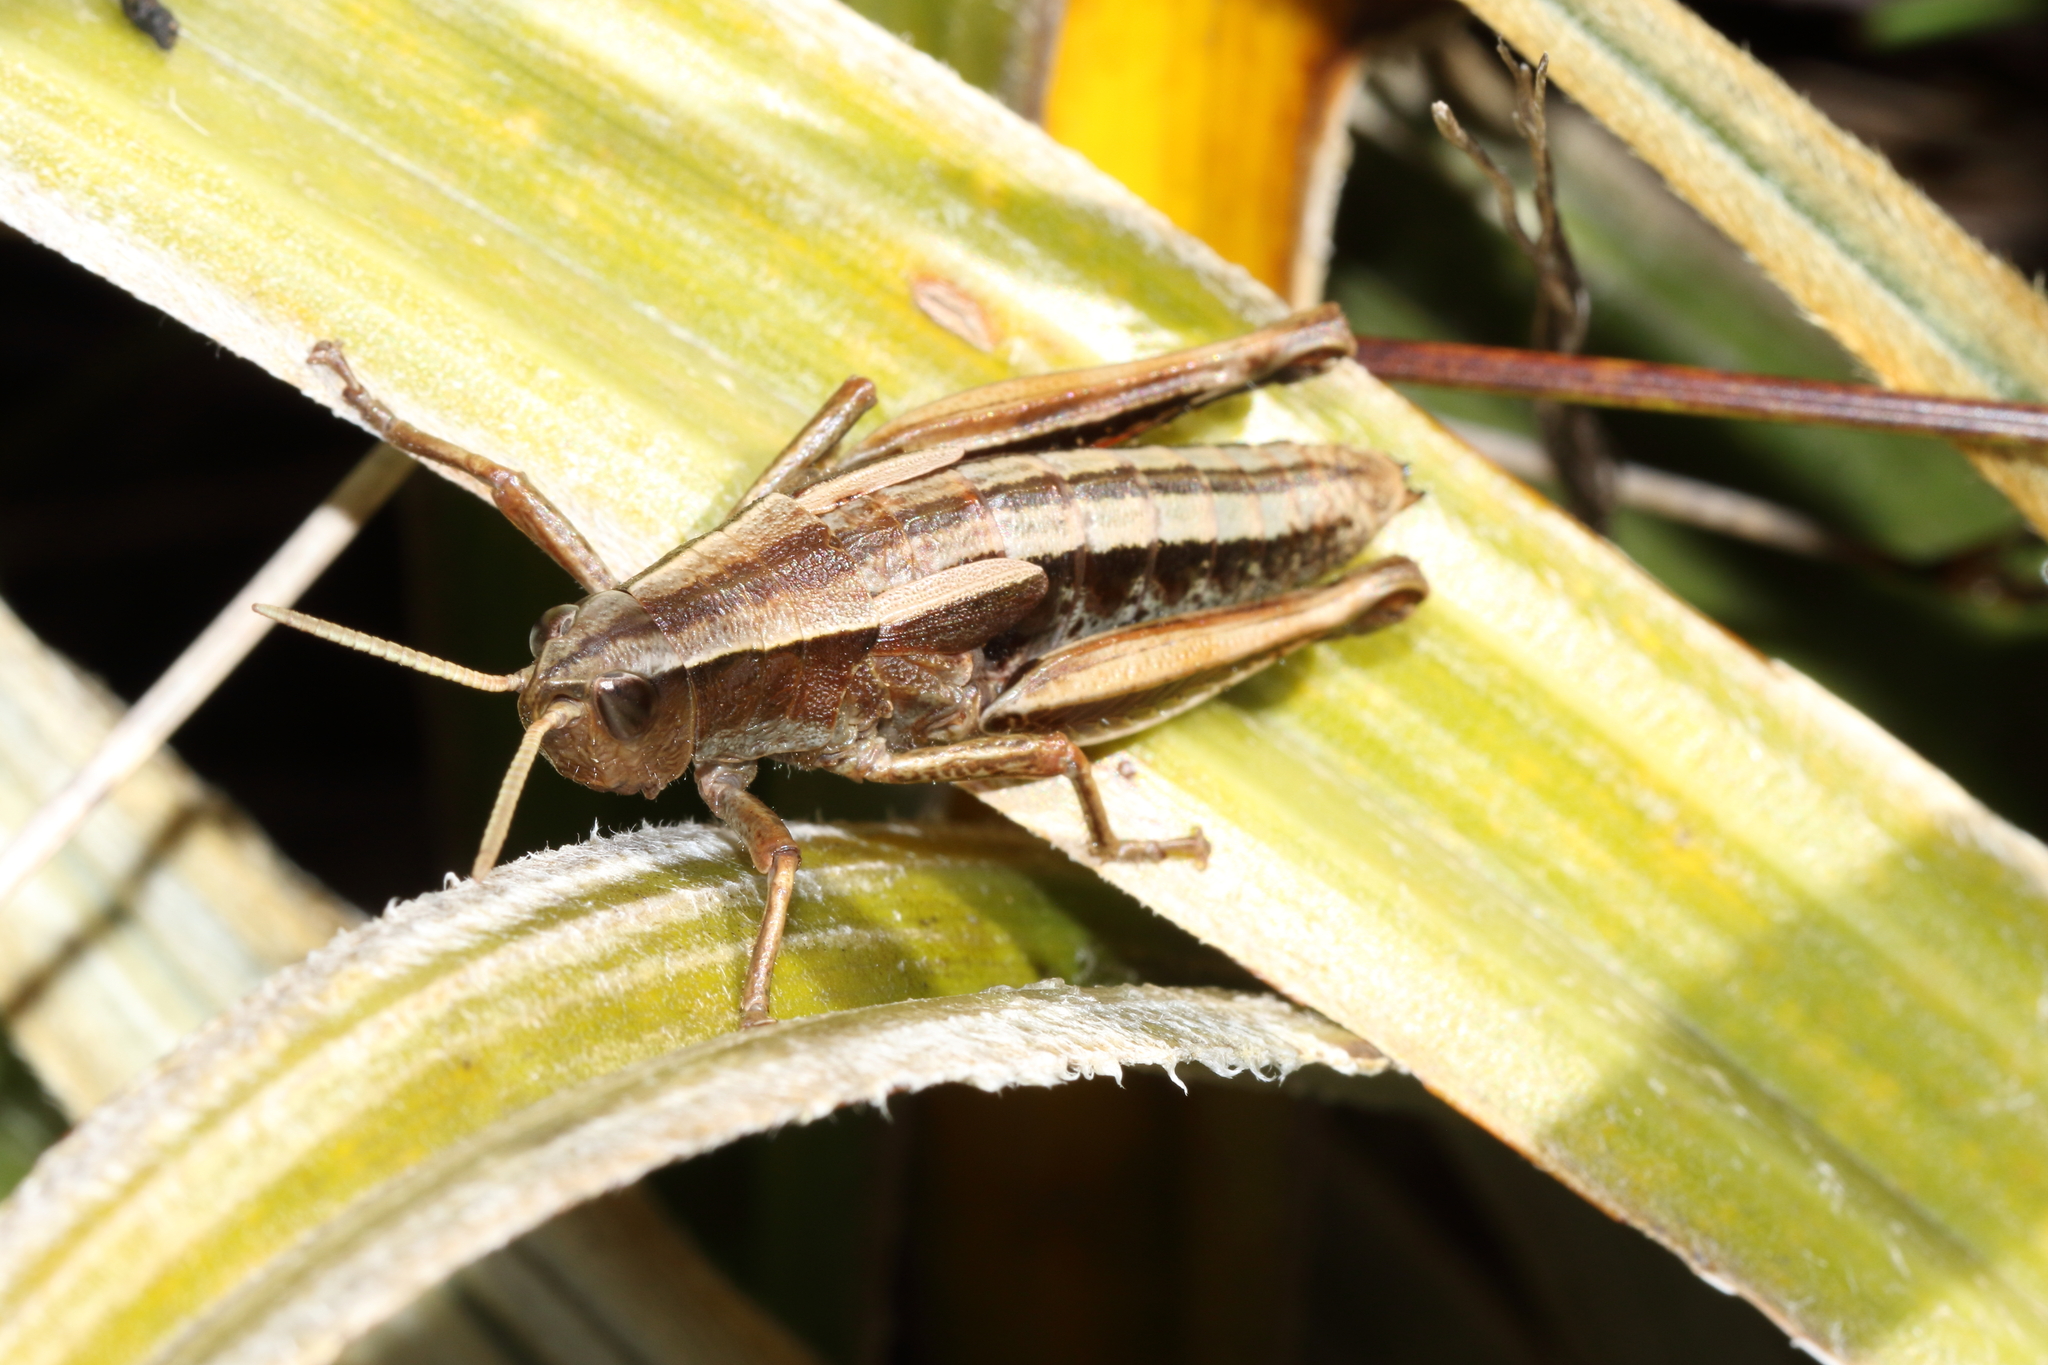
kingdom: Animalia
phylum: Arthropoda
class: Insecta
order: Orthoptera
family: Acrididae
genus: Sigaus
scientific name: Sigaus piliferus
